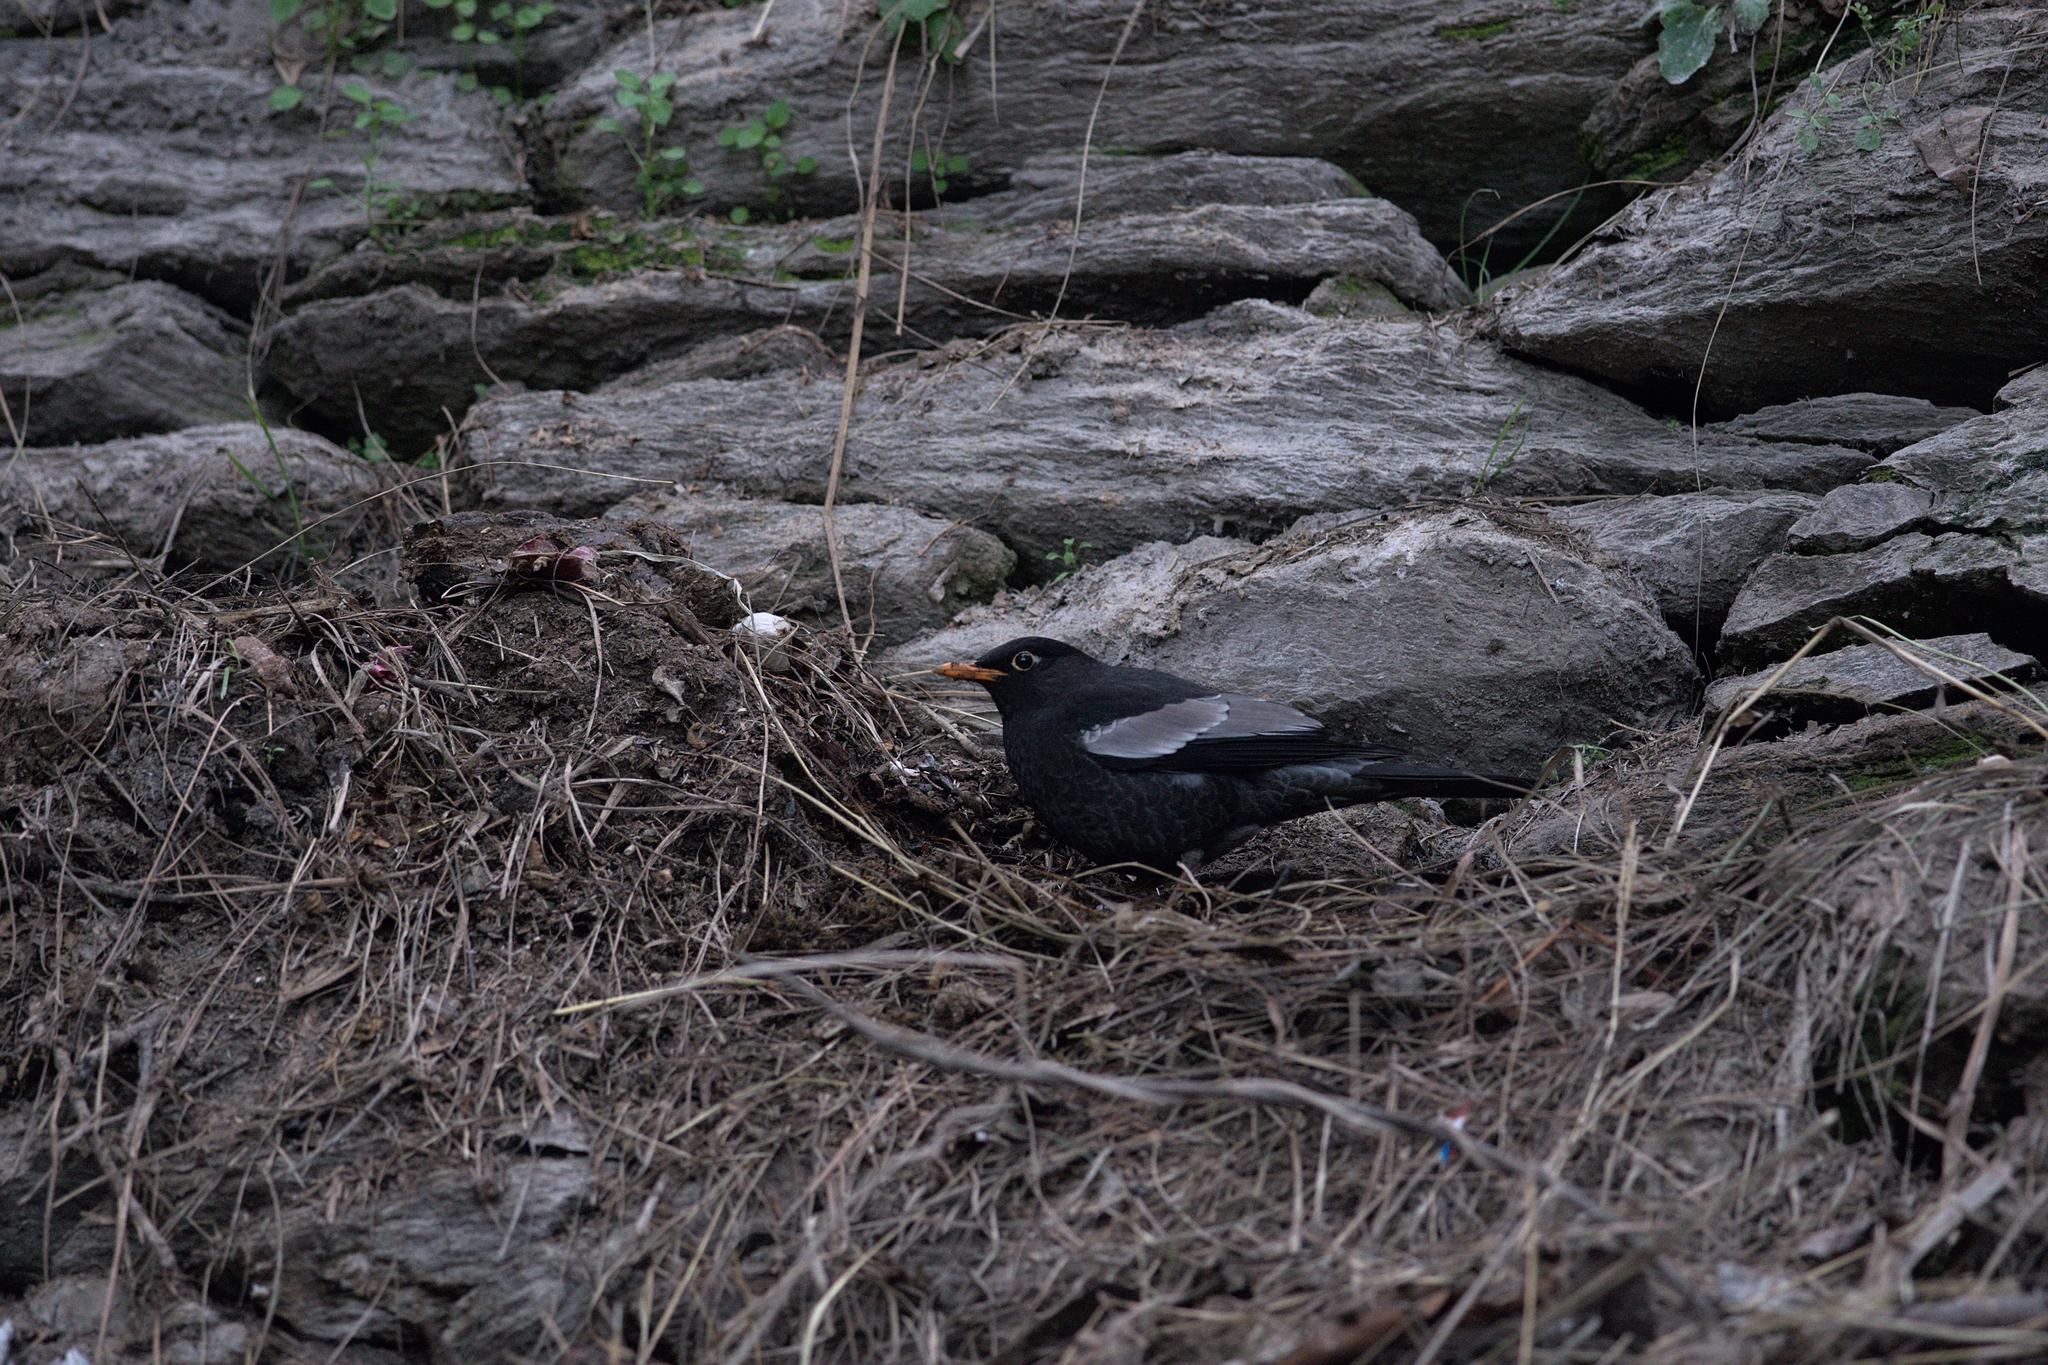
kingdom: Animalia
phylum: Chordata
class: Aves
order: Passeriformes
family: Turdidae
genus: Turdus
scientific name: Turdus boulboul
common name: Grey-winged blackbird
